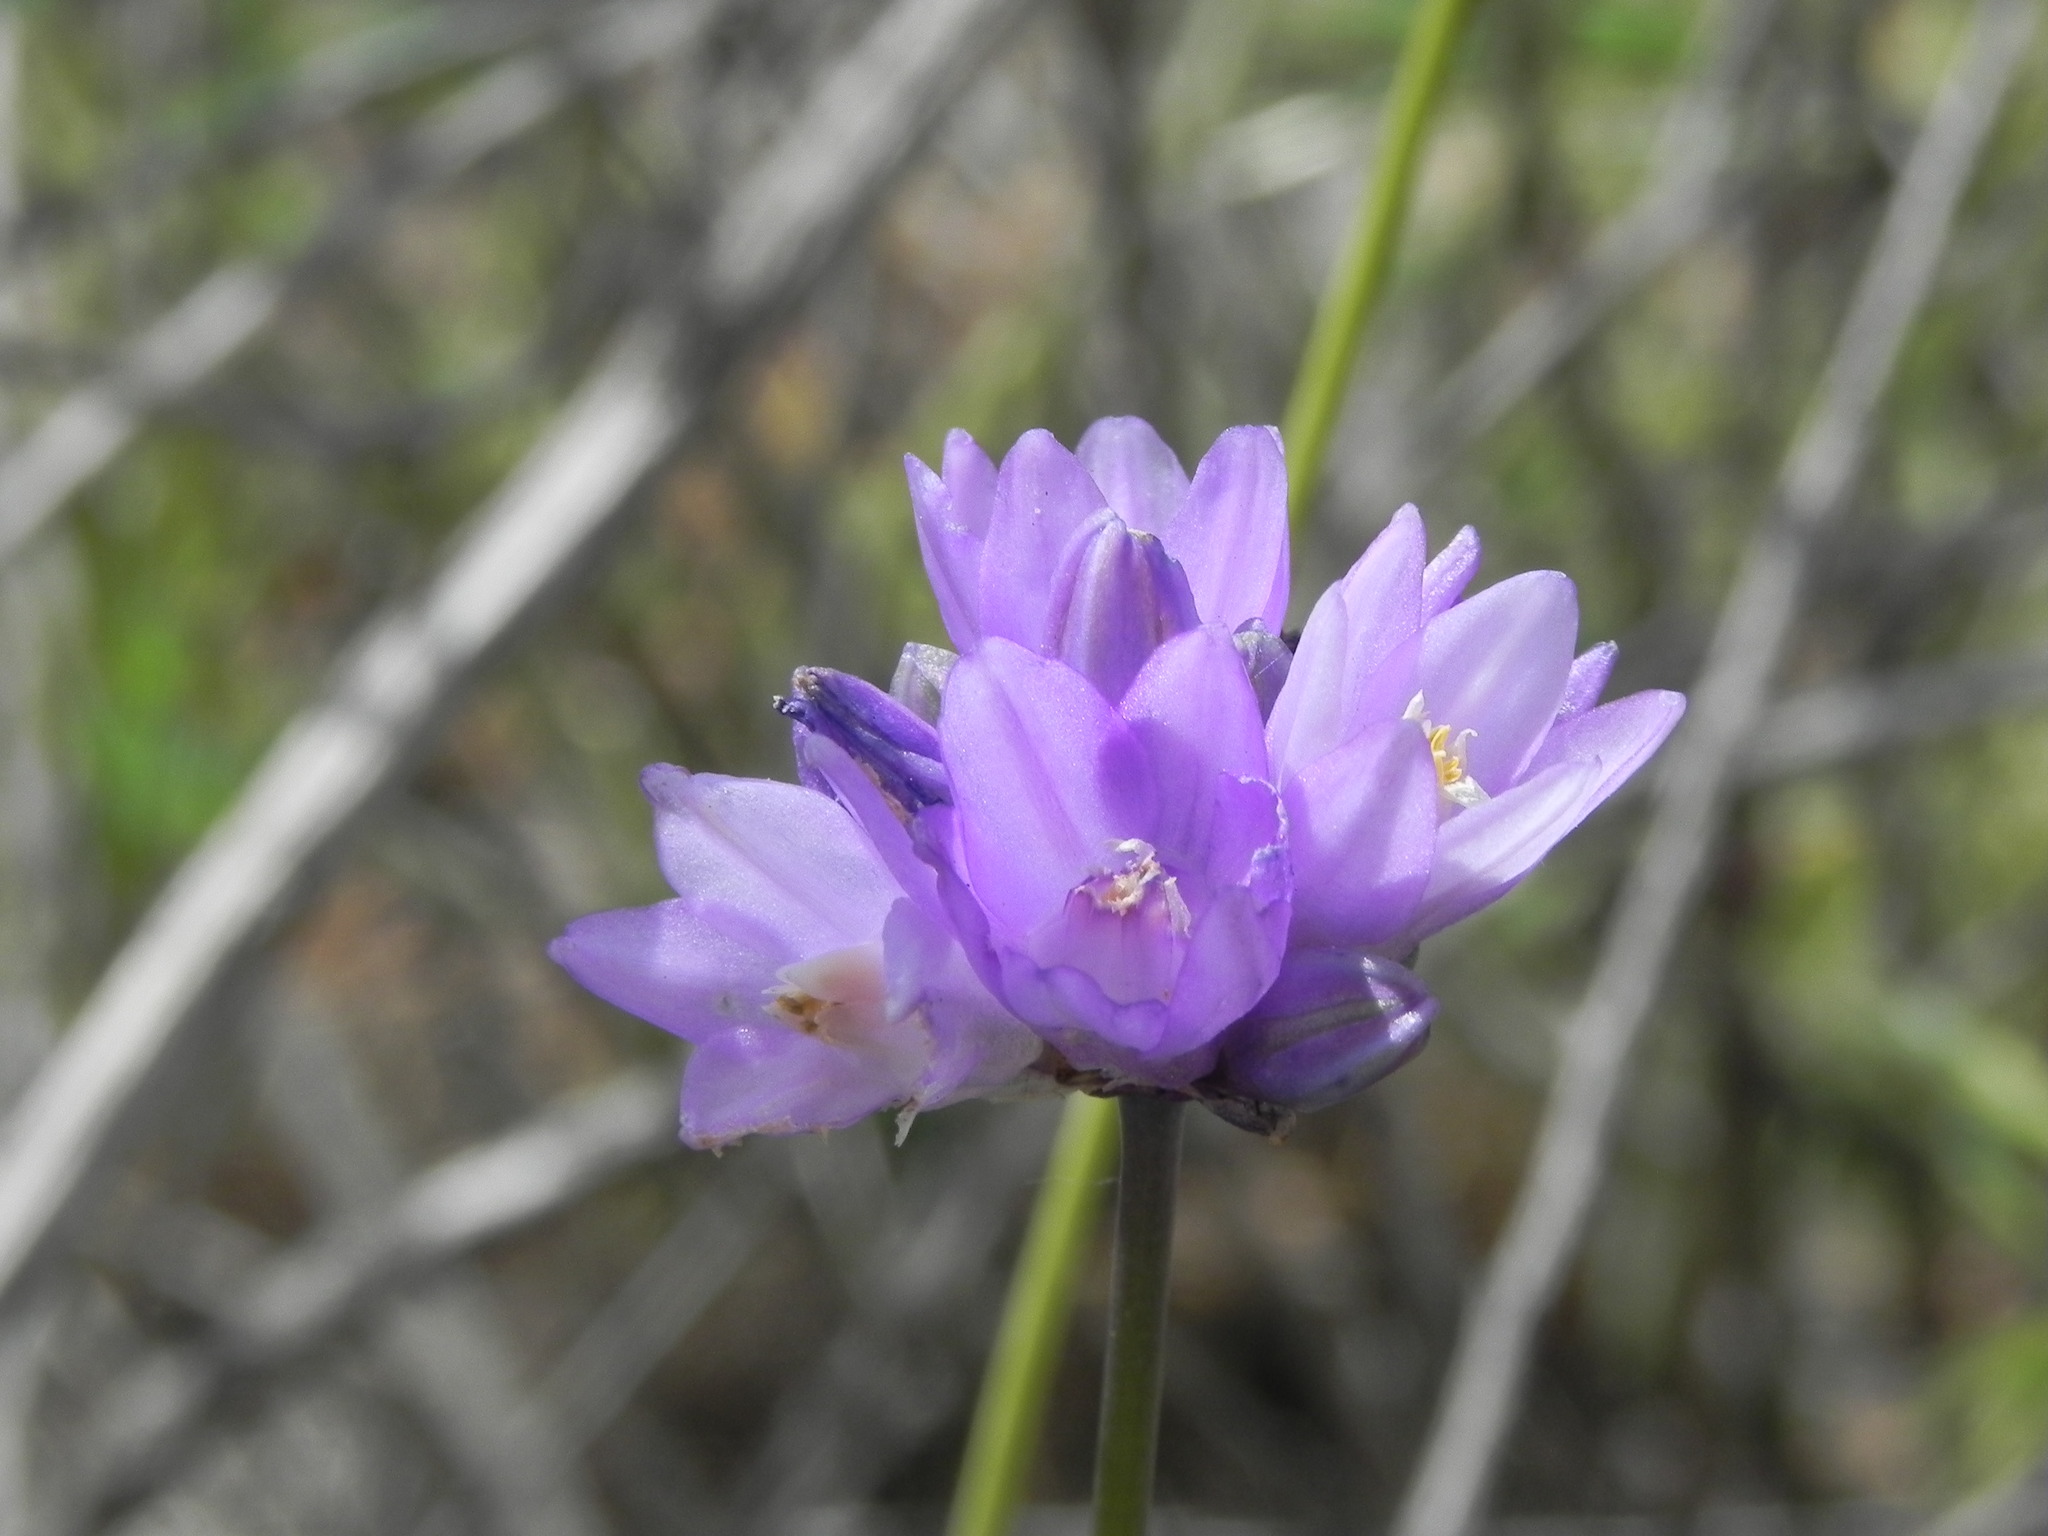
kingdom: Plantae
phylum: Tracheophyta
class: Liliopsida
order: Asparagales
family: Asparagaceae
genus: Dipterostemon
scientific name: Dipterostemon capitatus
